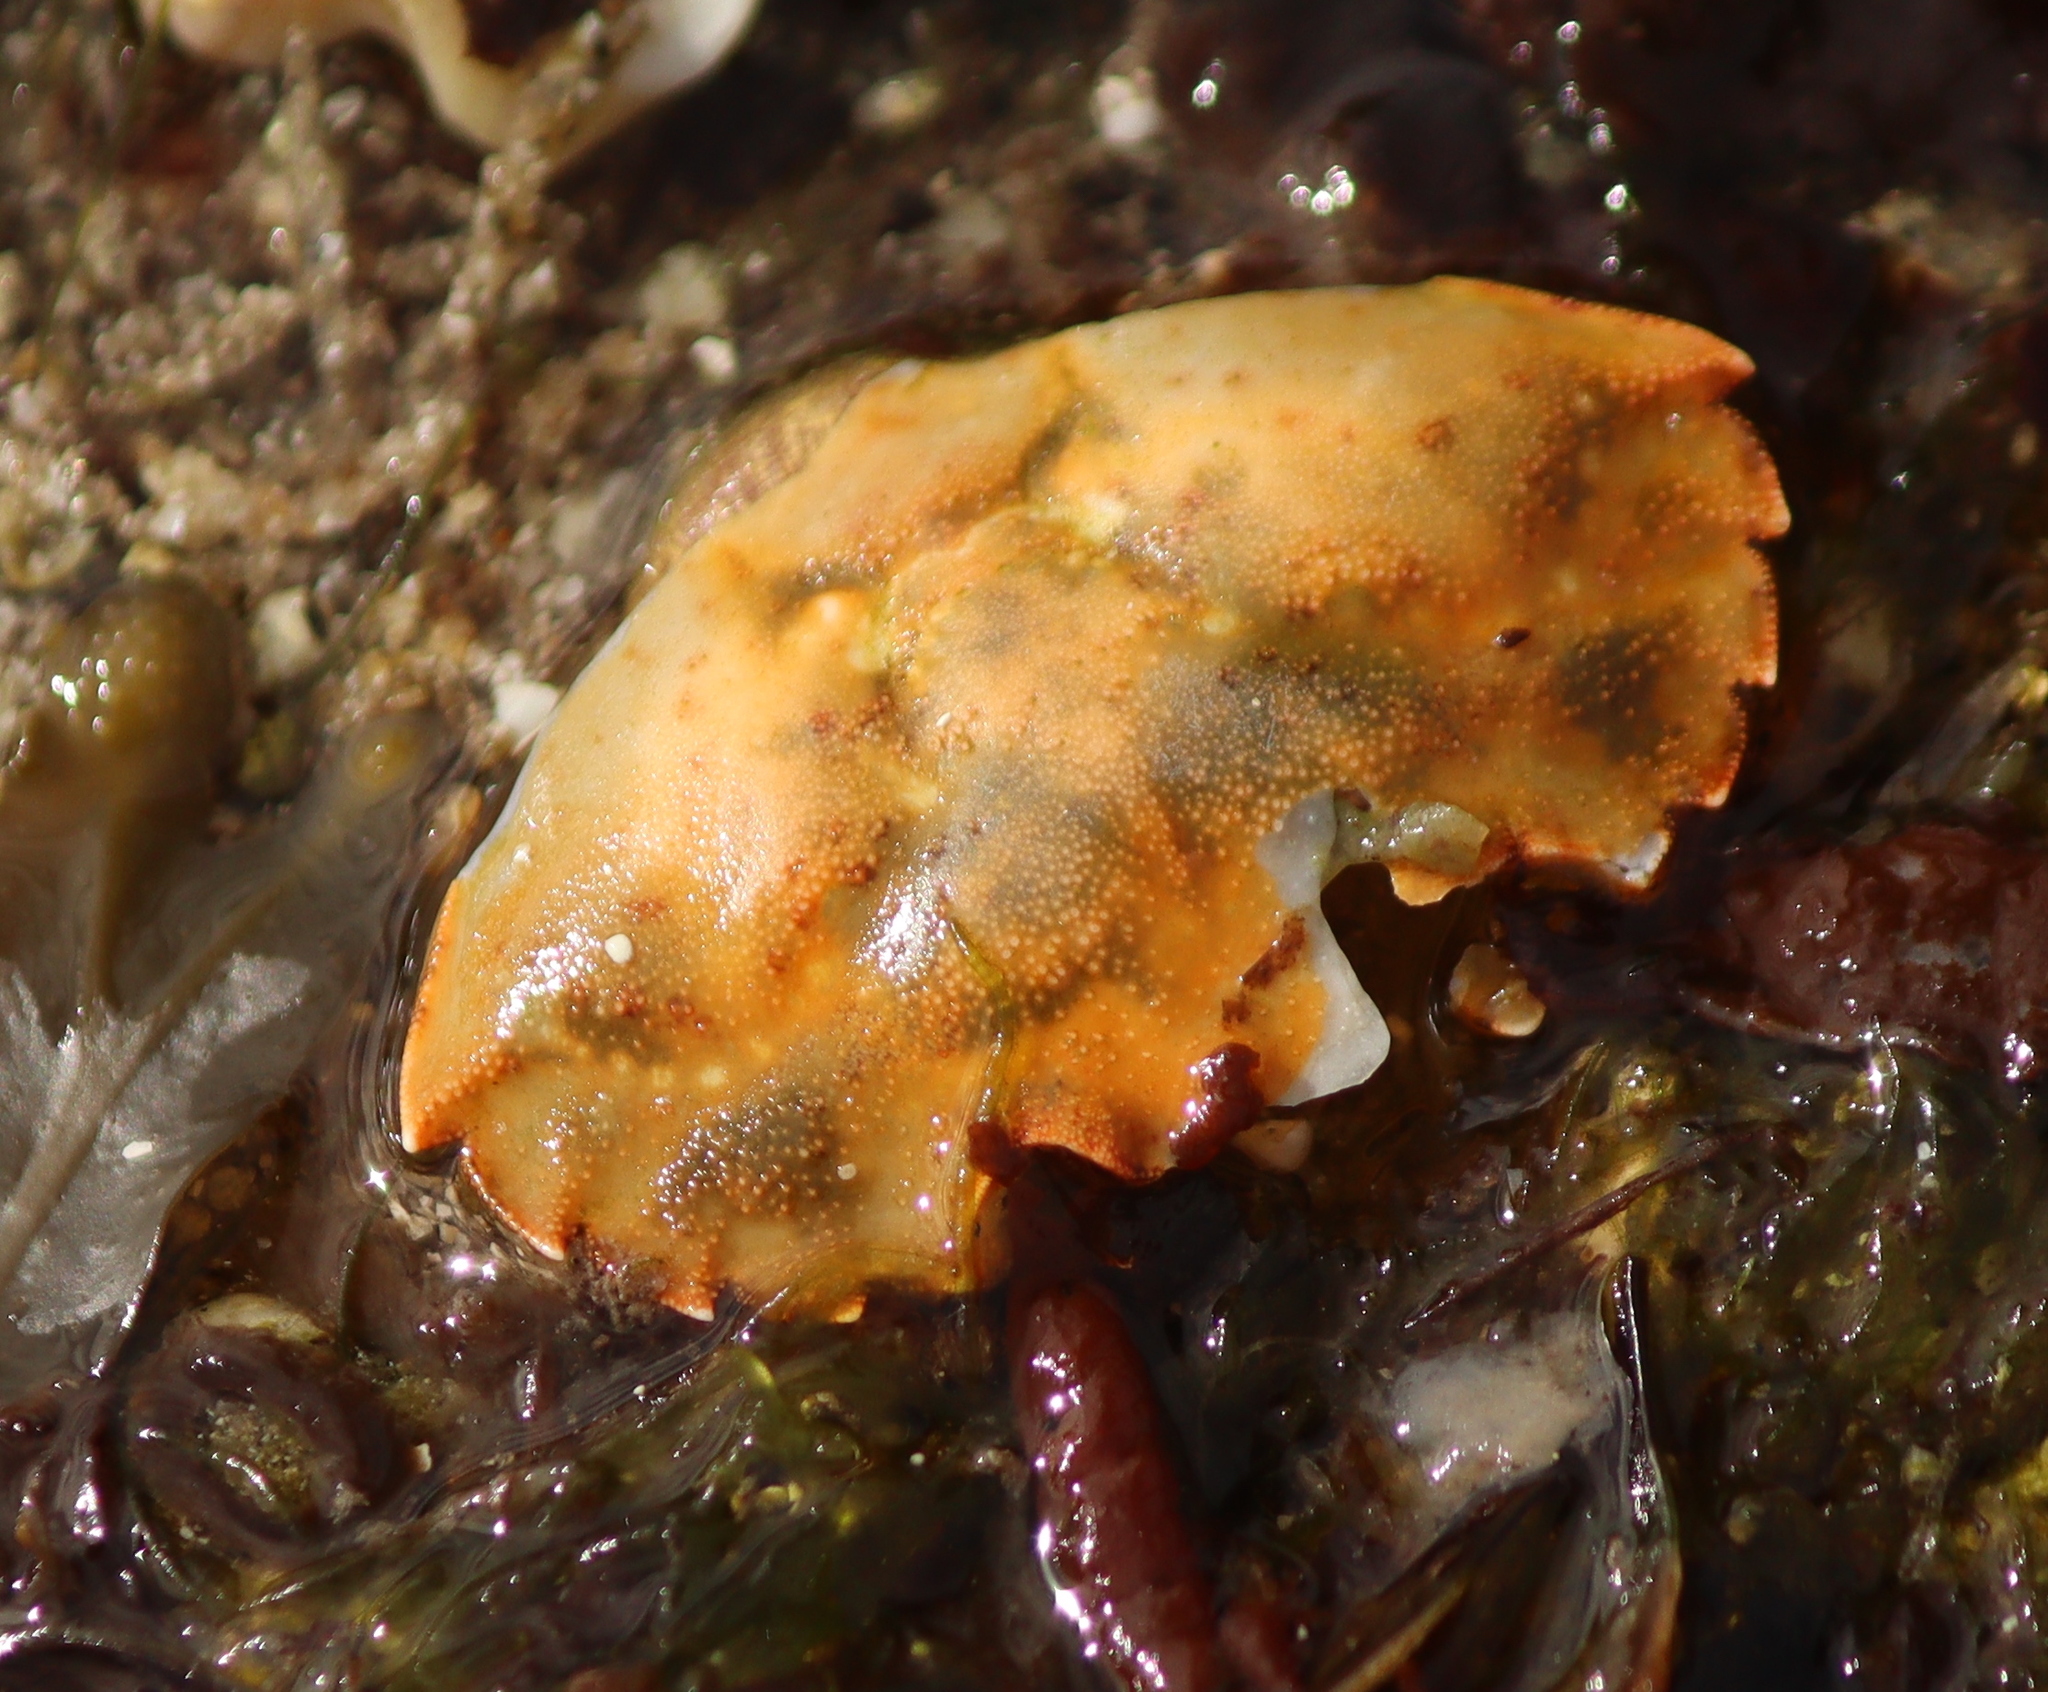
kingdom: Animalia
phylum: Arthropoda
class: Malacostraca
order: Decapoda
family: Carcinidae
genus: Carcinus
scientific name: Carcinus maenas
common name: European green crab
